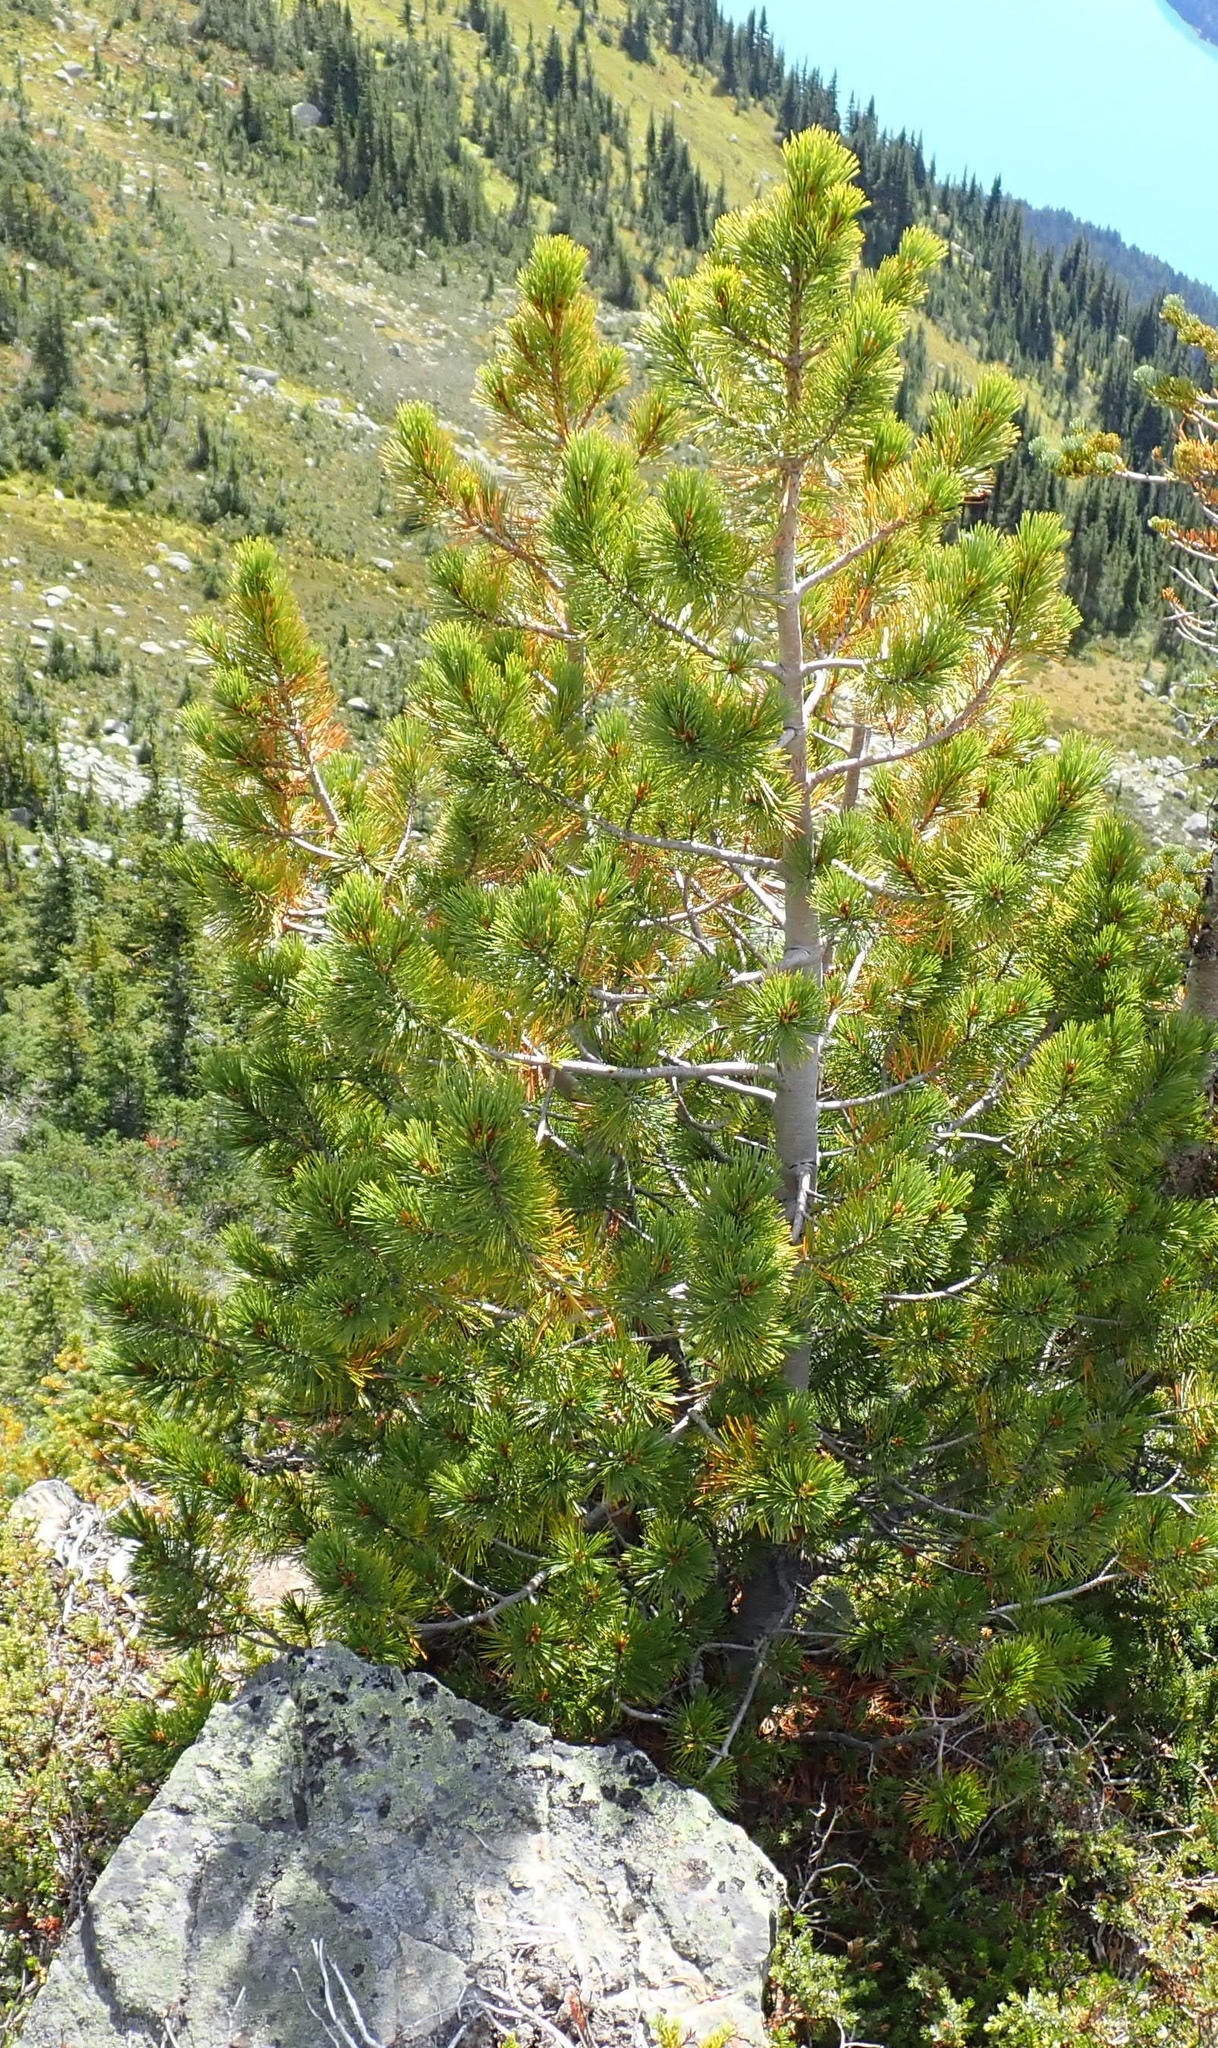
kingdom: Plantae
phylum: Tracheophyta
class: Pinopsida
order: Pinales
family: Pinaceae
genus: Pinus
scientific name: Pinus albicaulis
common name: Whitebark pine
